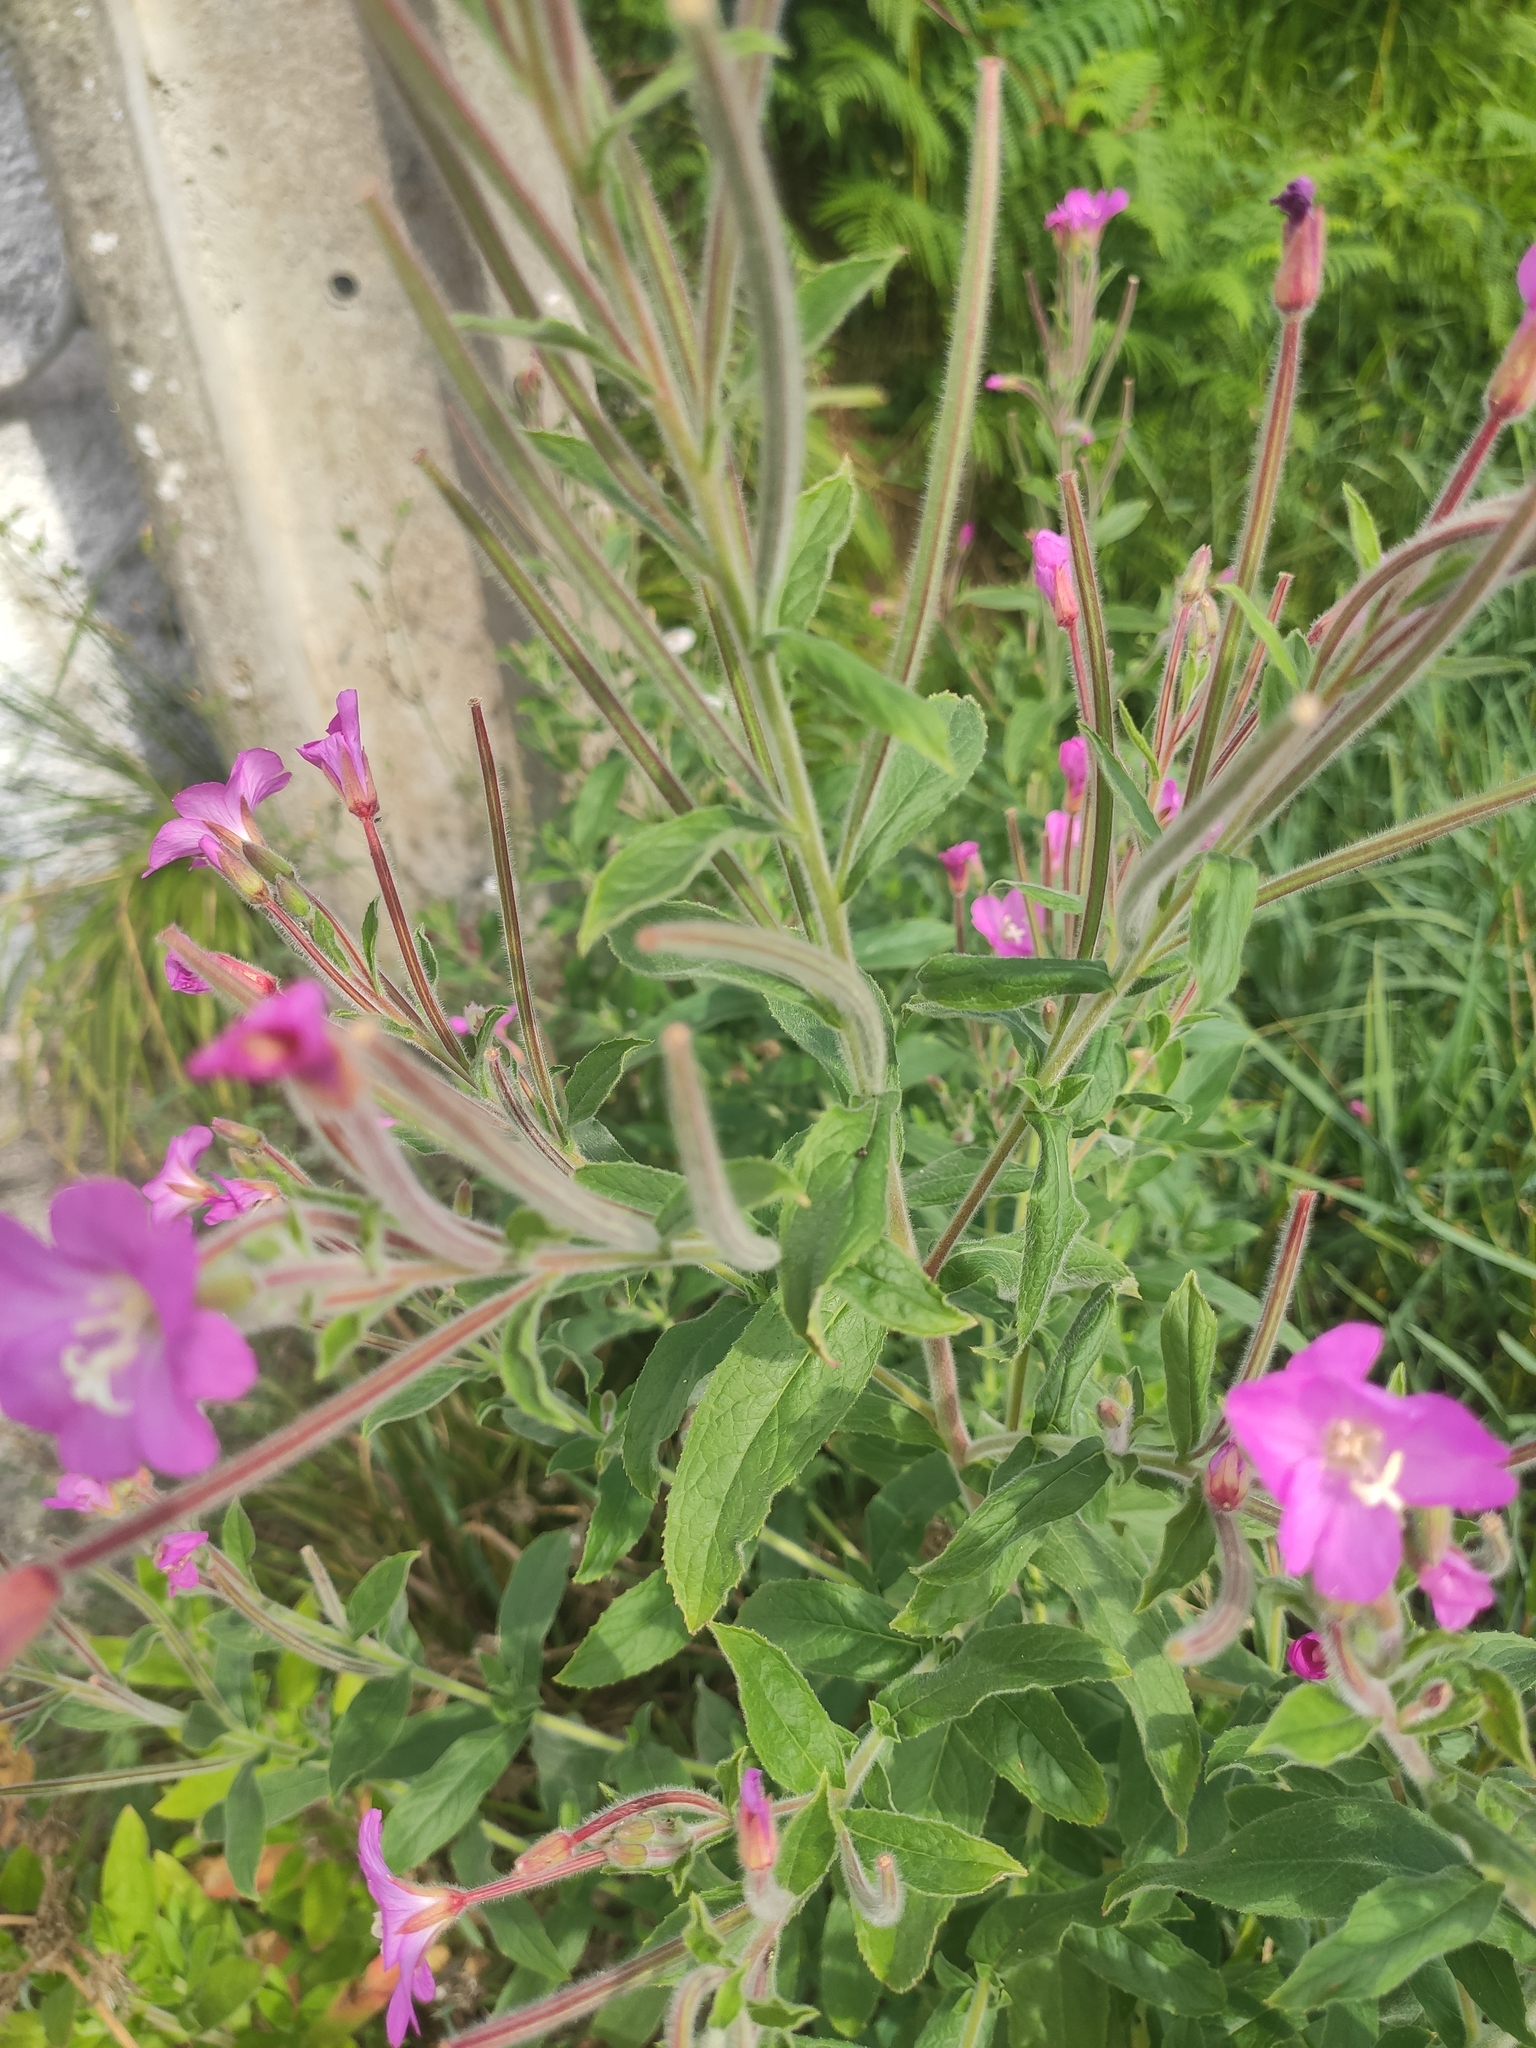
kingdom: Plantae
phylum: Tracheophyta
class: Magnoliopsida
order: Myrtales
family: Onagraceae
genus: Epilobium
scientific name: Epilobium hirsutum
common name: Great willowherb
